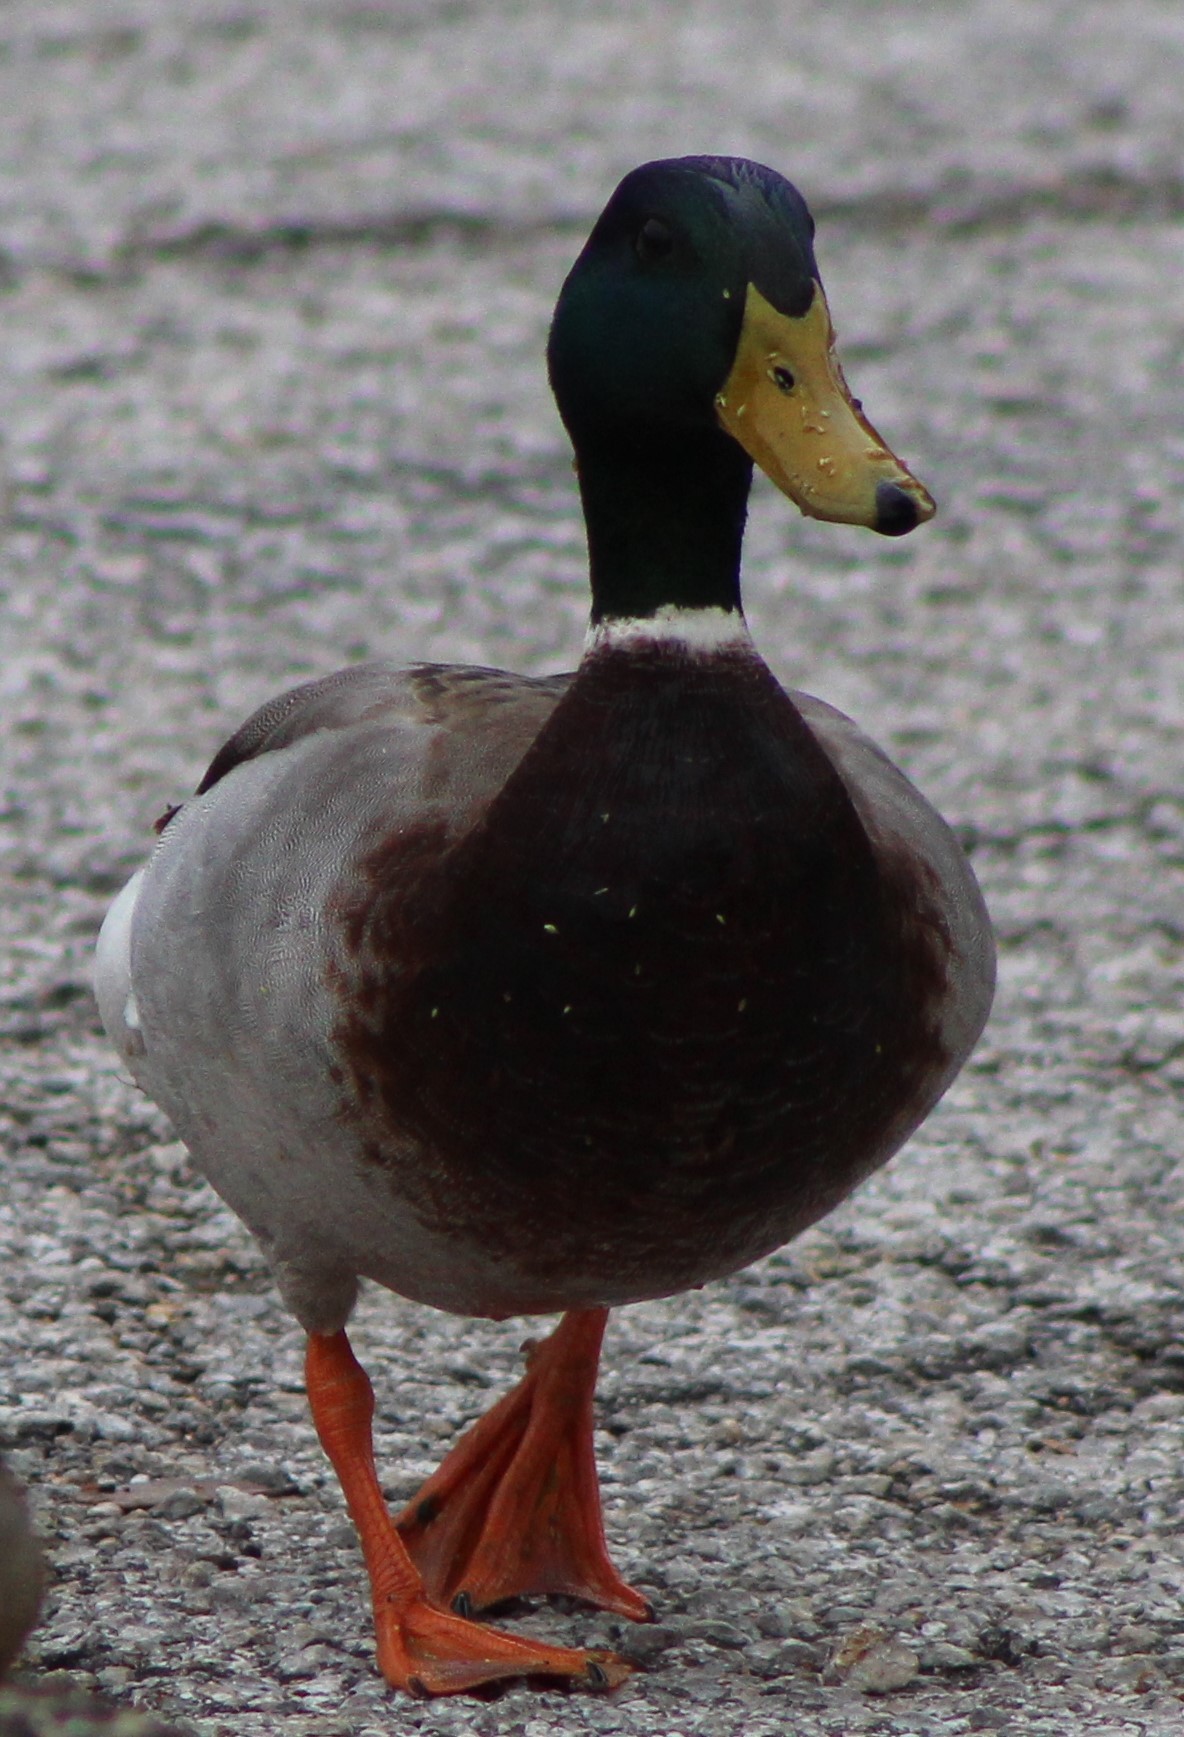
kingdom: Animalia
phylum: Chordata
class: Aves
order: Anseriformes
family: Anatidae
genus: Anas
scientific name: Anas platyrhynchos
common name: Mallard
